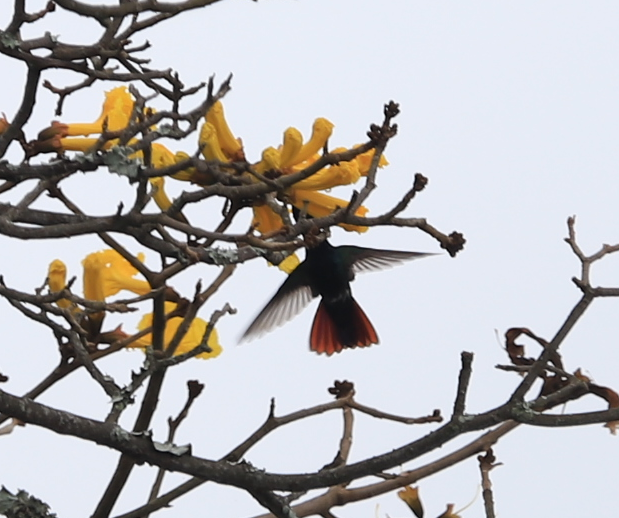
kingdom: Animalia
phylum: Chordata
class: Aves
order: Apodiformes
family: Trochilidae
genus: Amazilia
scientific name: Amazilia tzacatl
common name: Rufous-tailed hummingbird
